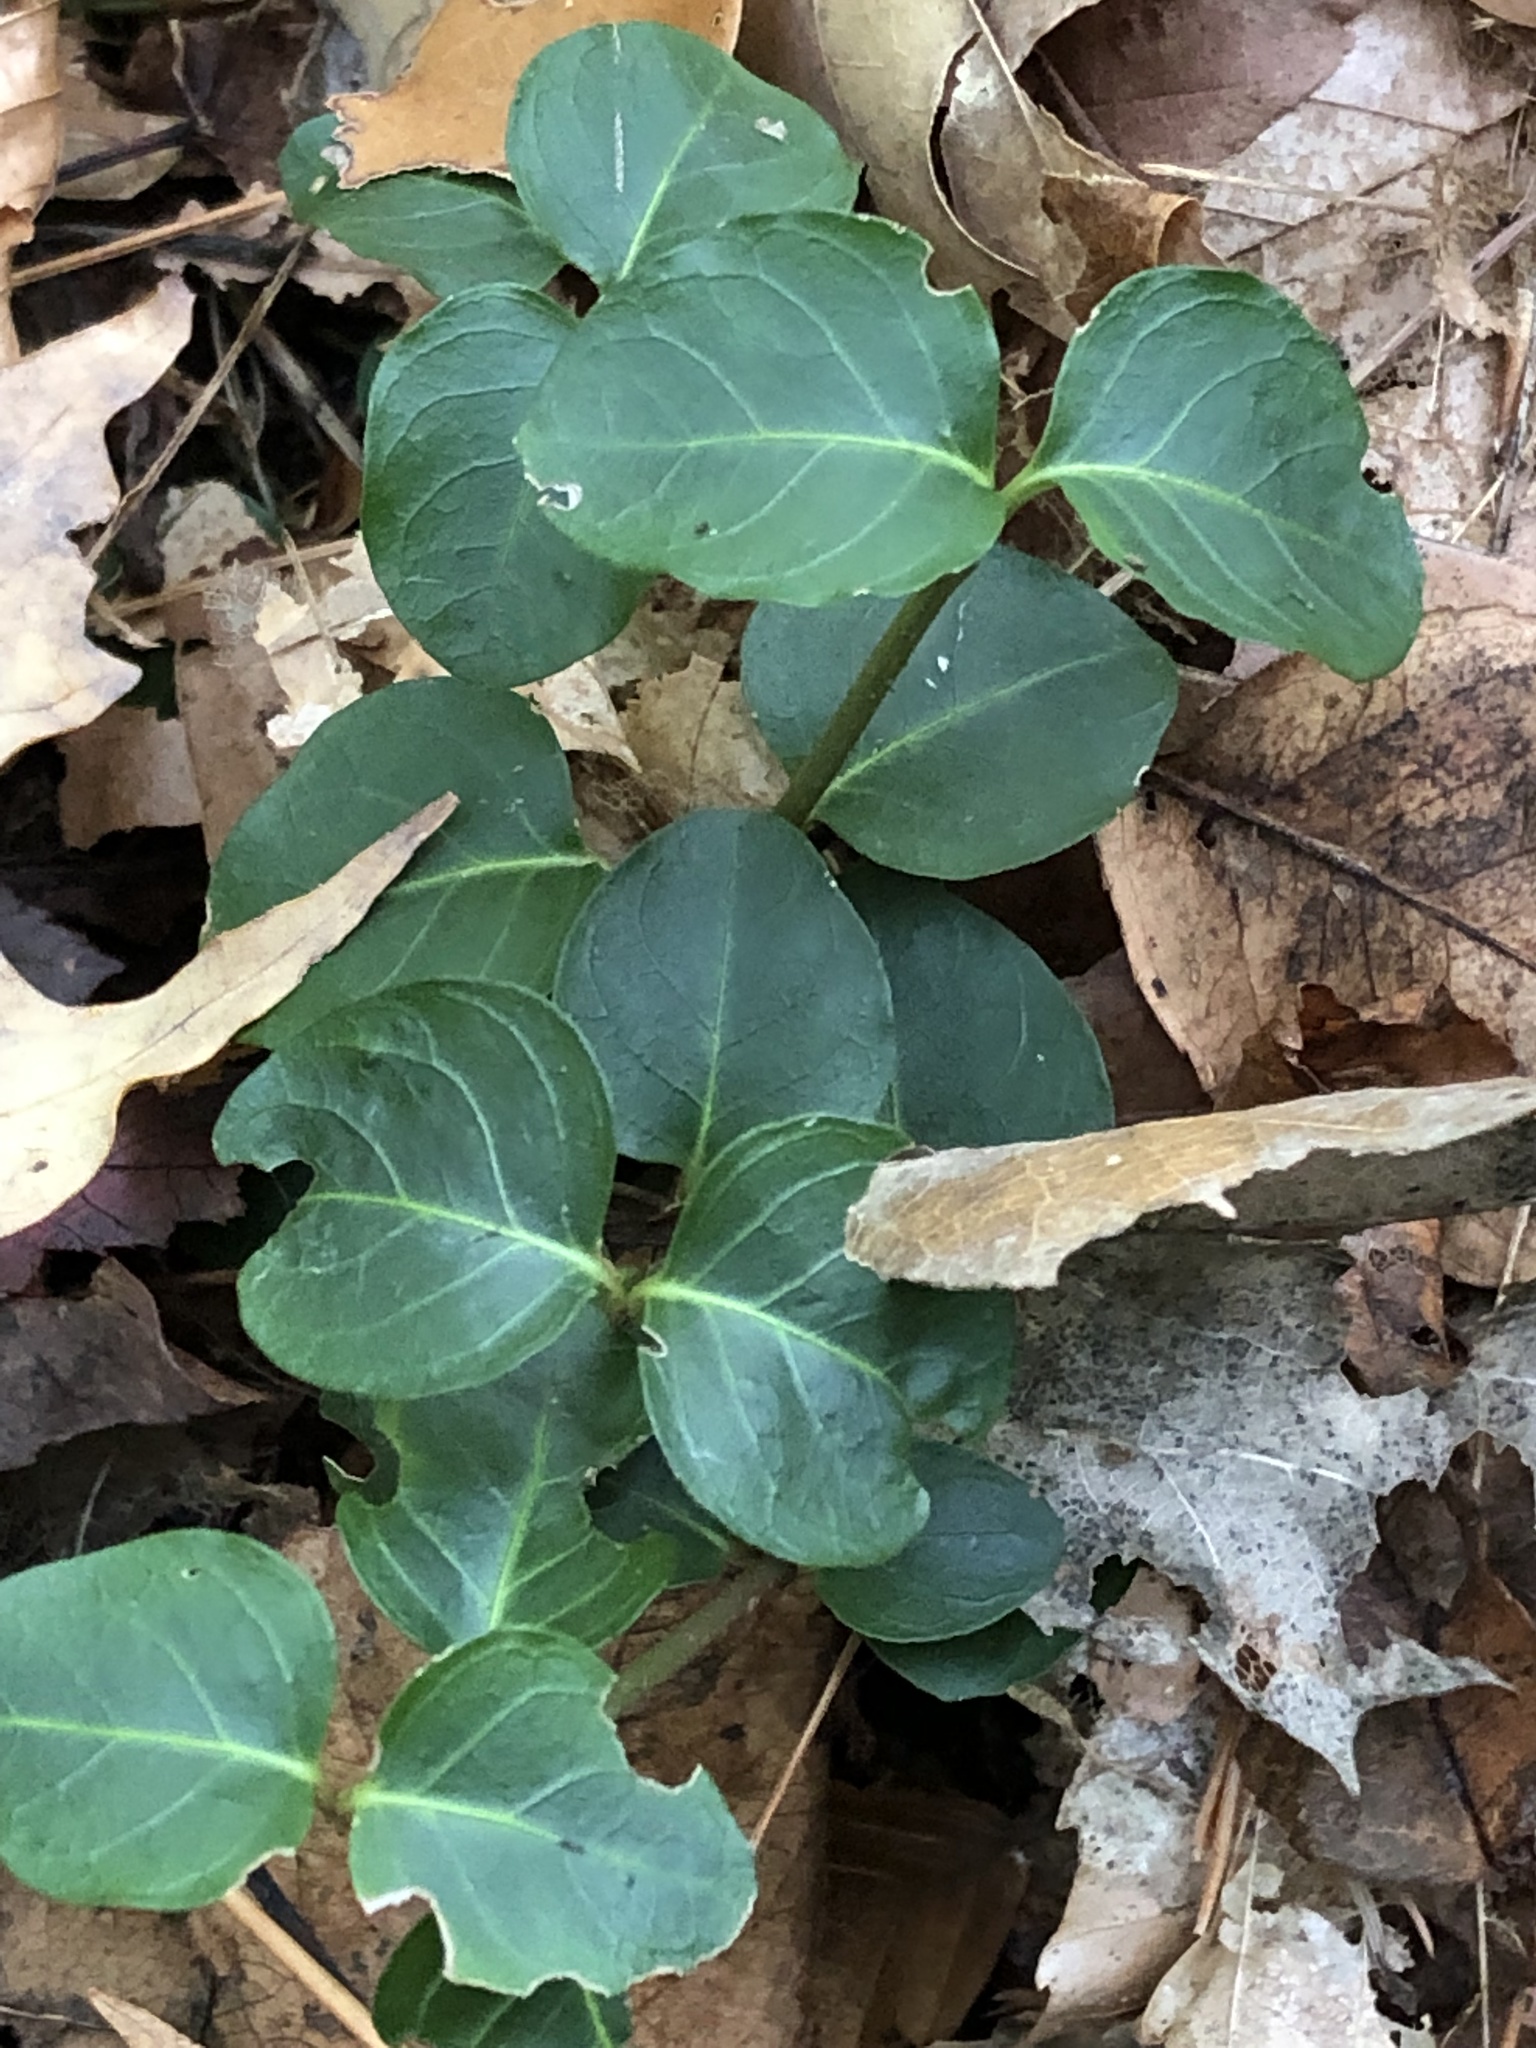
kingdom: Plantae
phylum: Tracheophyta
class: Magnoliopsida
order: Gentianales
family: Rubiaceae
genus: Mitchella
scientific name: Mitchella repens
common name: Partridge-berry
